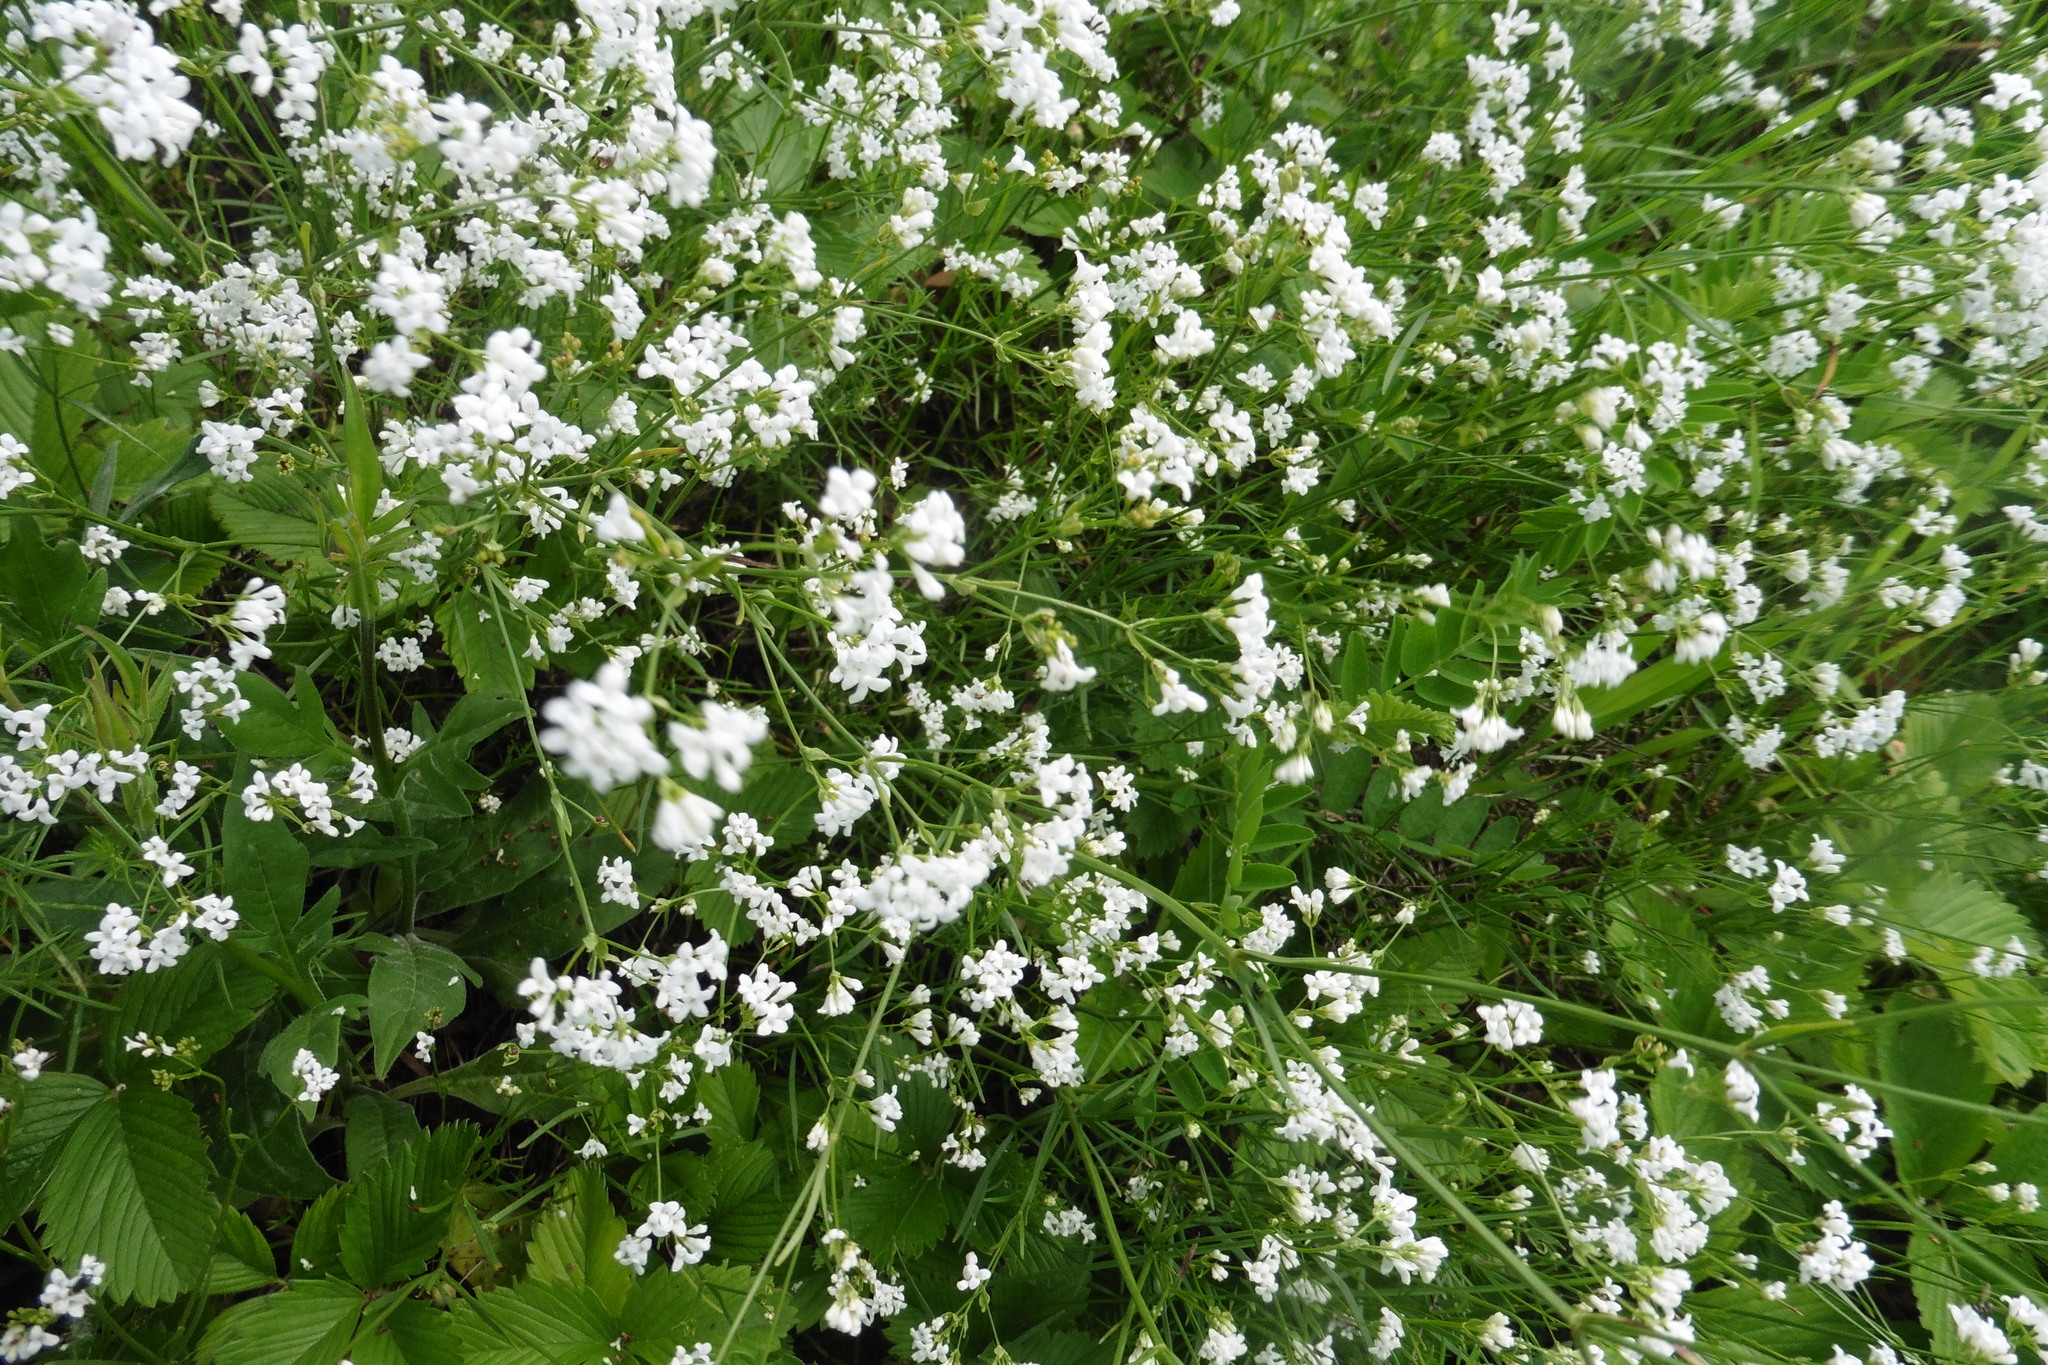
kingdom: Plantae
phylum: Tracheophyta
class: Magnoliopsida
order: Gentianales
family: Rubiaceae
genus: Asperula
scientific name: Asperula tinctoria
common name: Dyer's woodruff
